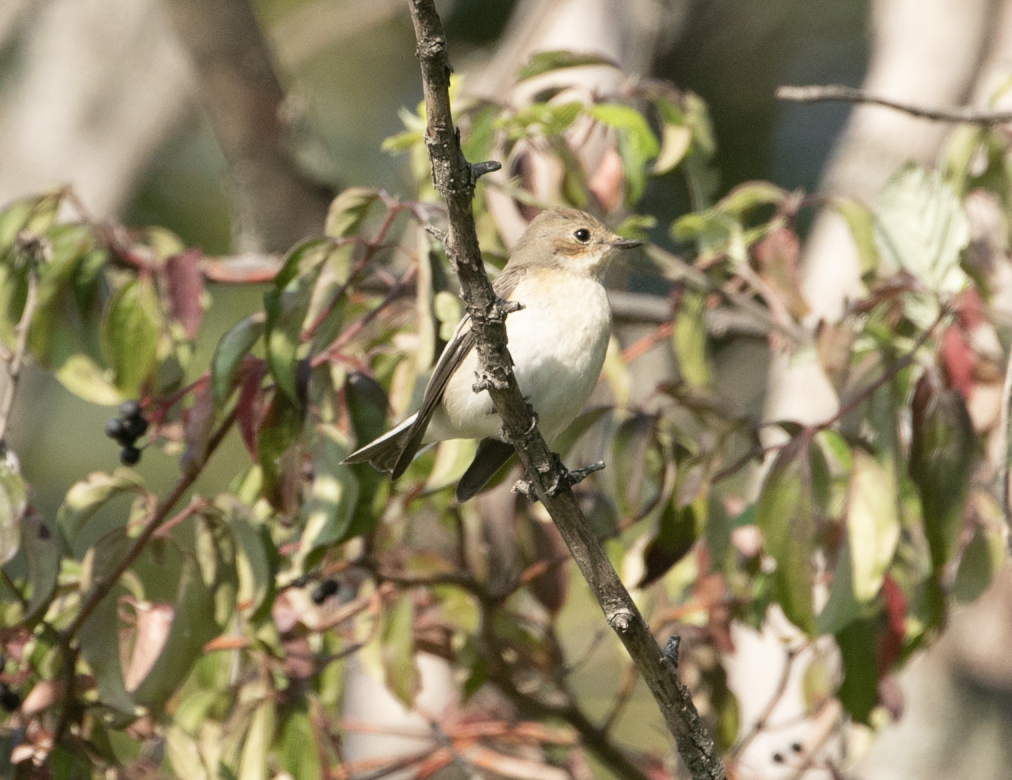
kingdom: Animalia
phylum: Chordata
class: Aves
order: Passeriformes
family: Muscicapidae
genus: Ficedula
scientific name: Ficedula hypoleuca
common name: European pied flycatcher
